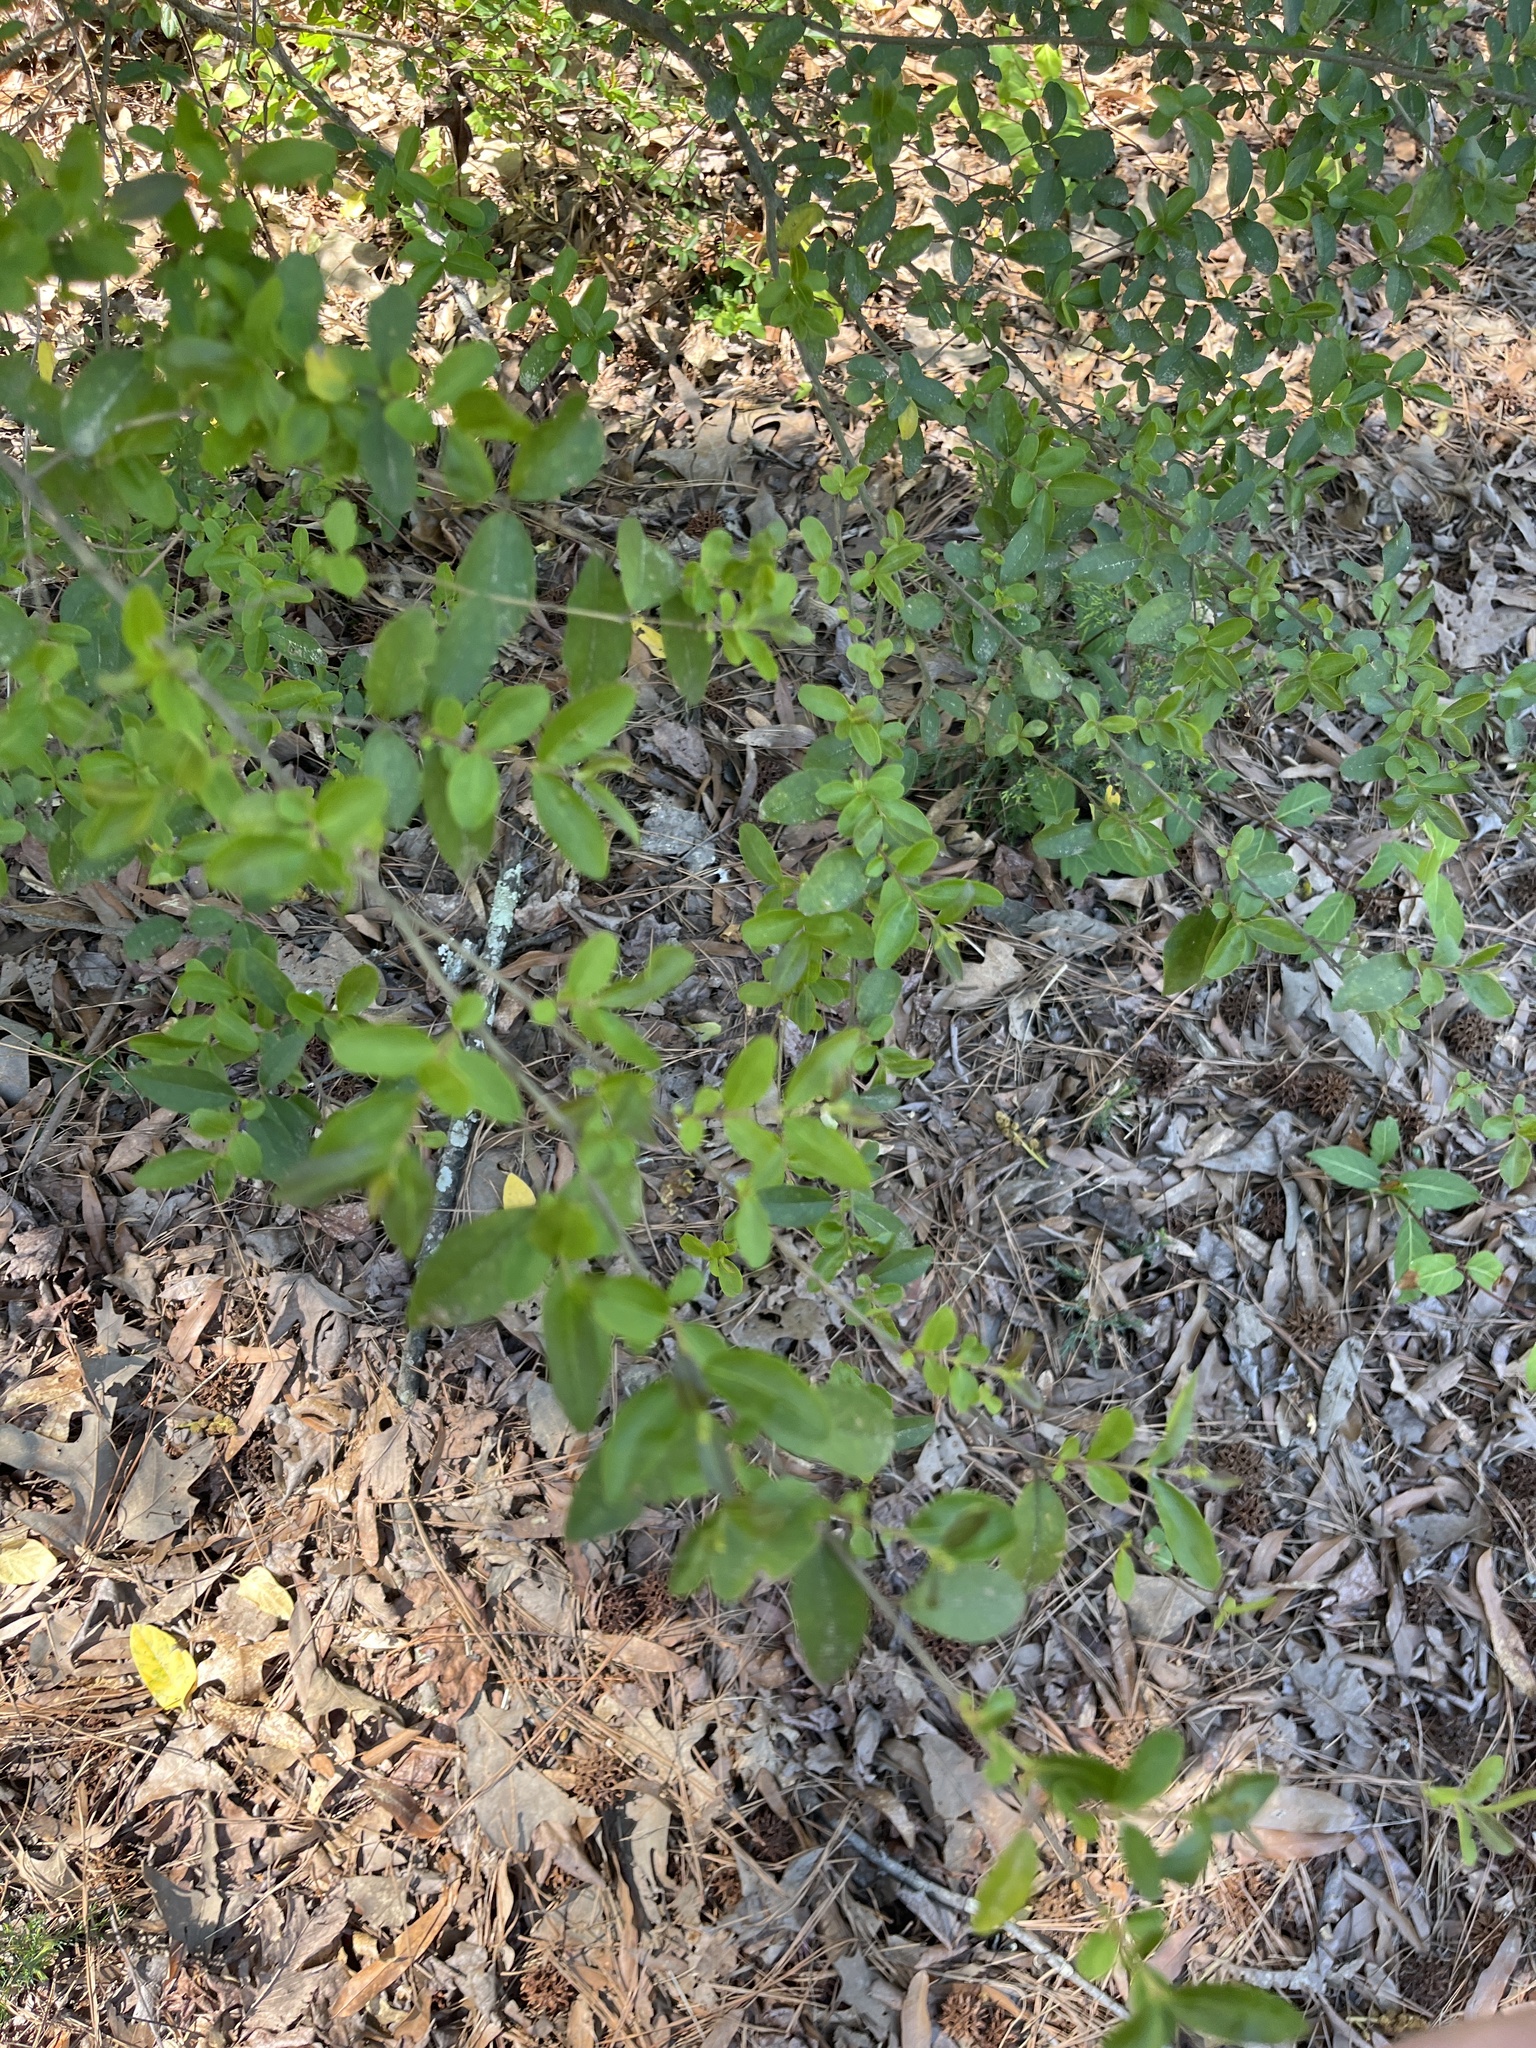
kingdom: Plantae
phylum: Tracheophyta
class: Magnoliopsida
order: Lamiales
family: Oleaceae
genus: Ligustrum
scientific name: Ligustrum sinense
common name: Chinese privet
